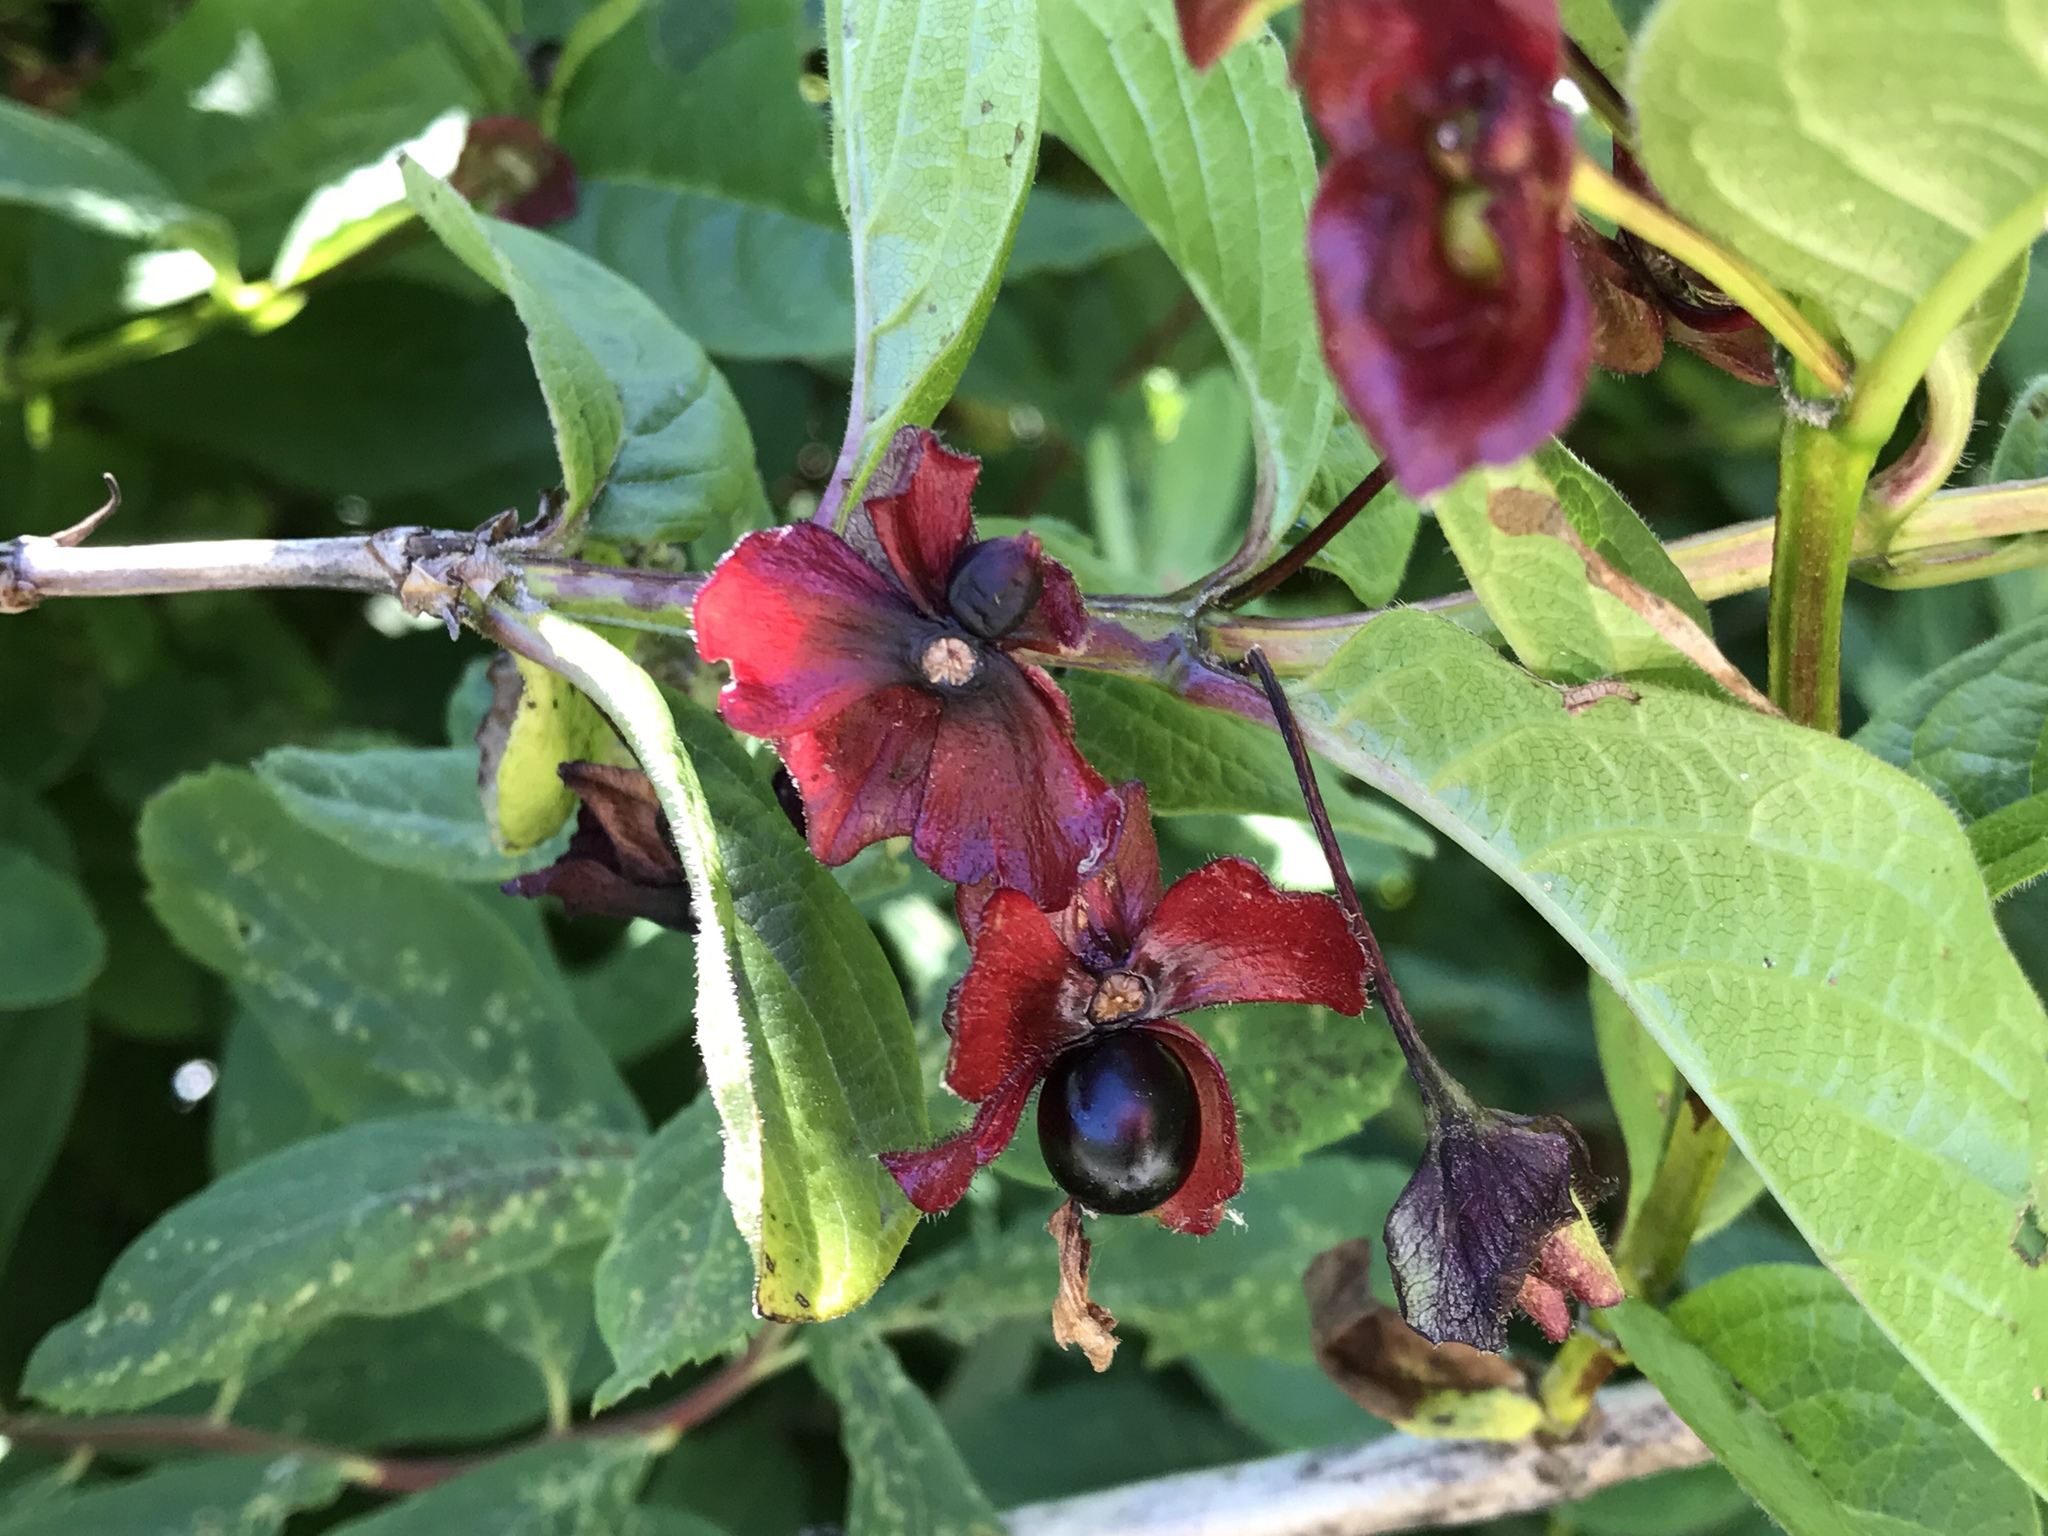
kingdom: Plantae
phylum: Tracheophyta
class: Magnoliopsida
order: Dipsacales
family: Caprifoliaceae
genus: Lonicera
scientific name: Lonicera involucrata
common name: Californian honeysuckle
